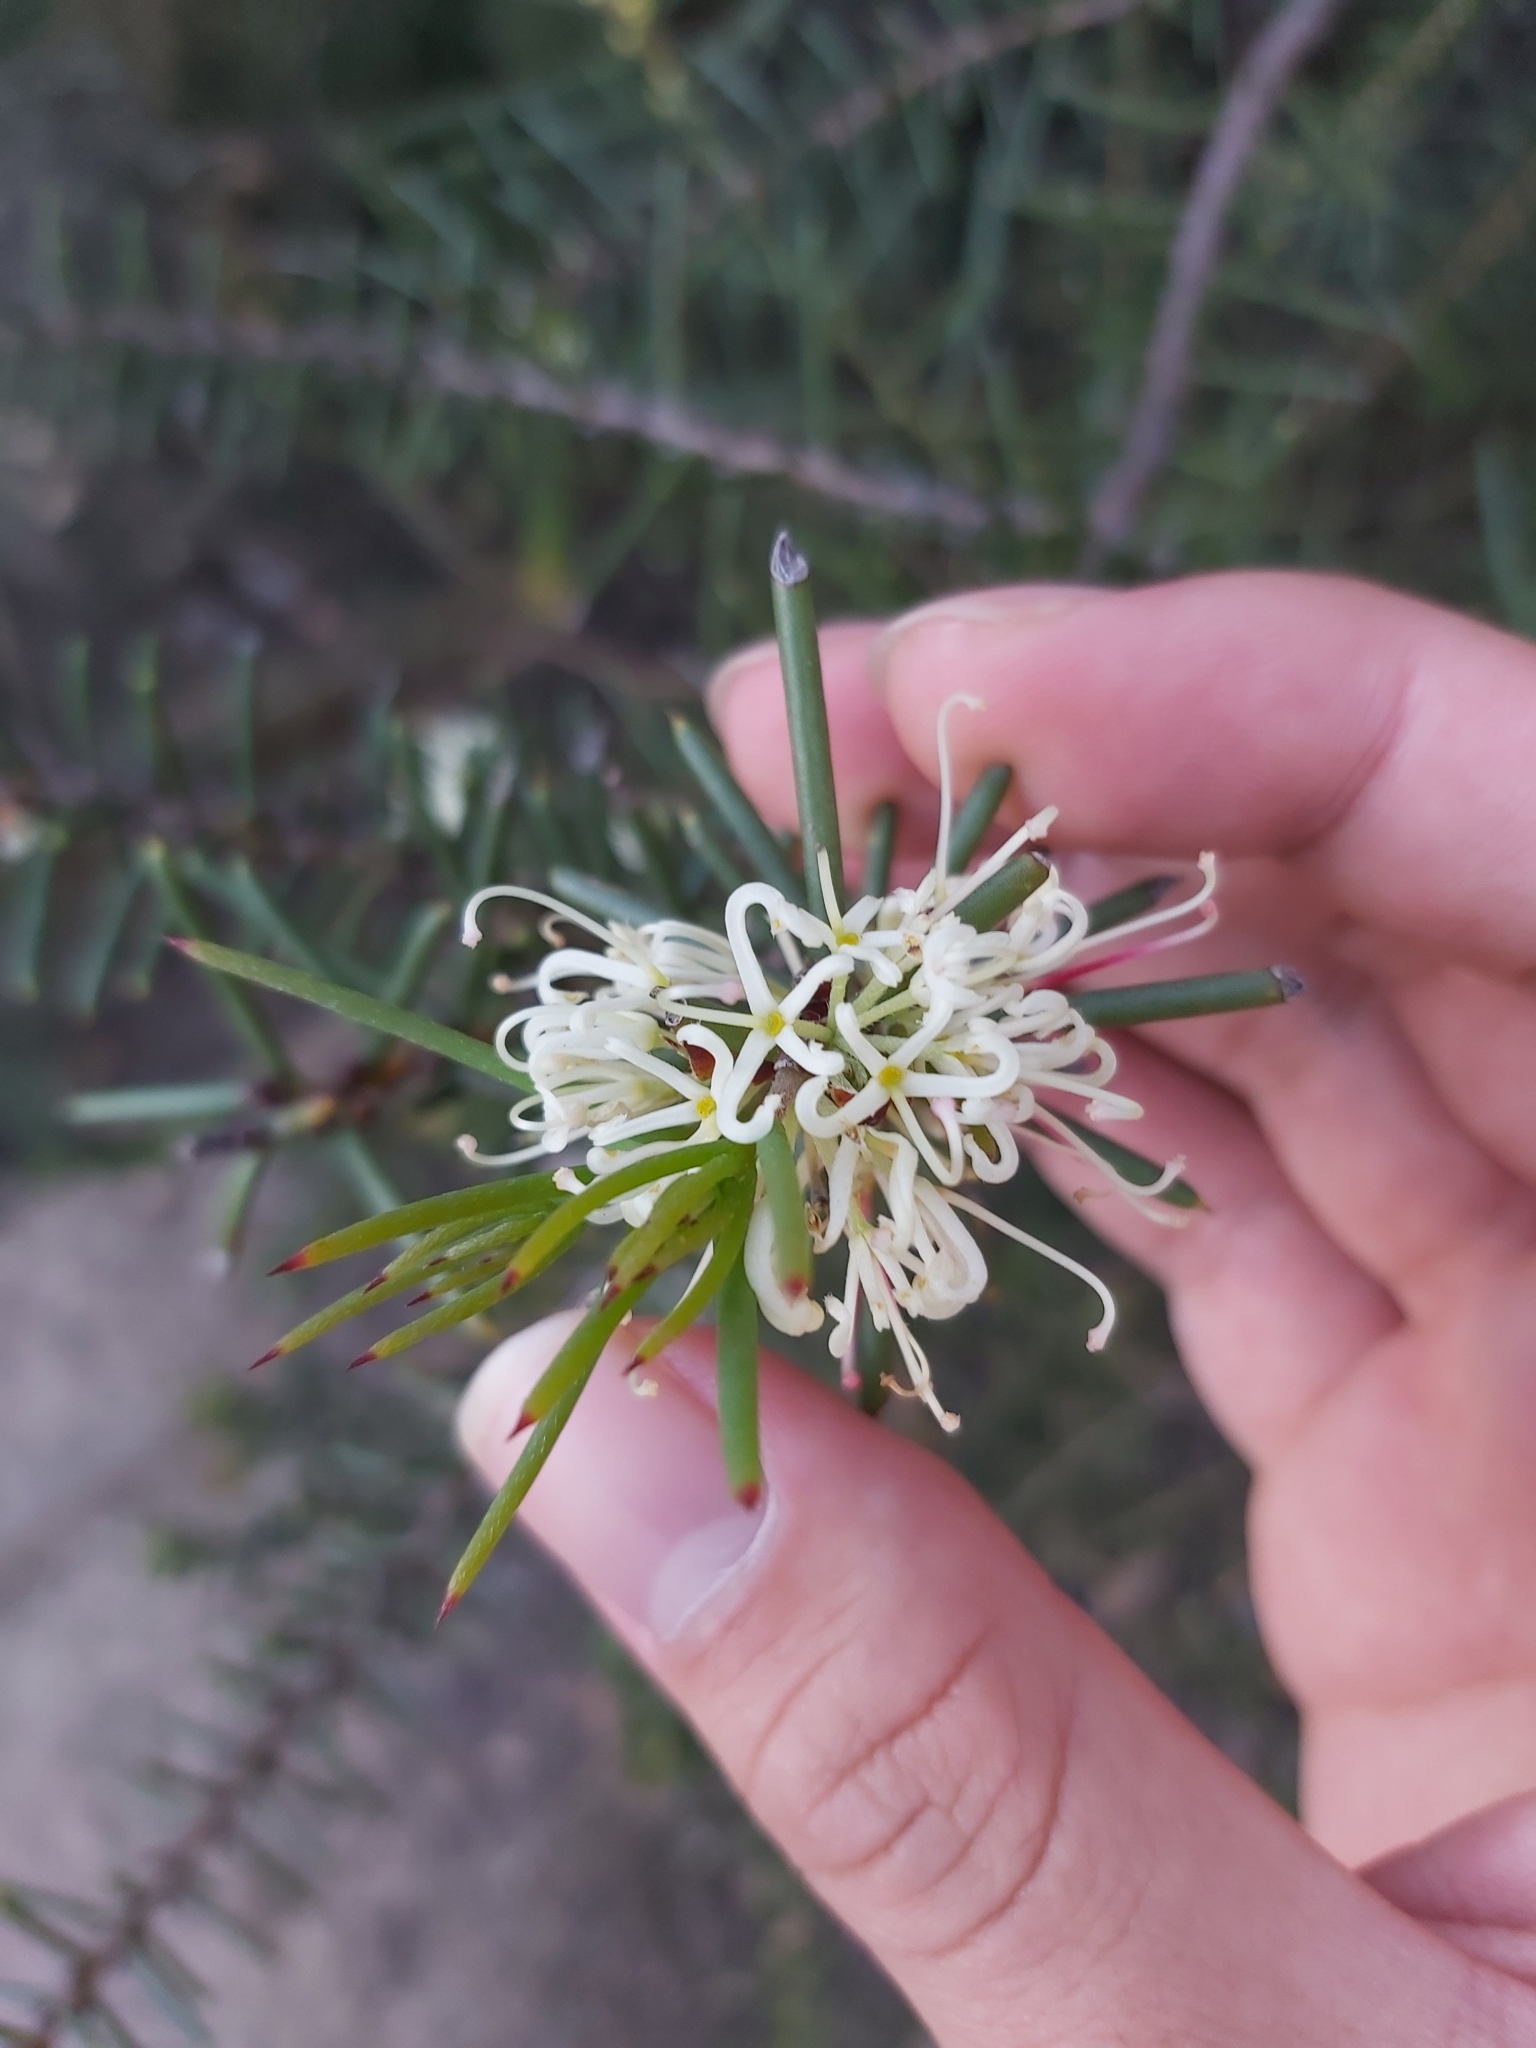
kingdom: Plantae
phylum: Tracheophyta
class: Magnoliopsida
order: Proteales
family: Proteaceae
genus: Hakea
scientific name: Hakea teretifolia
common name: Dagger hakea
